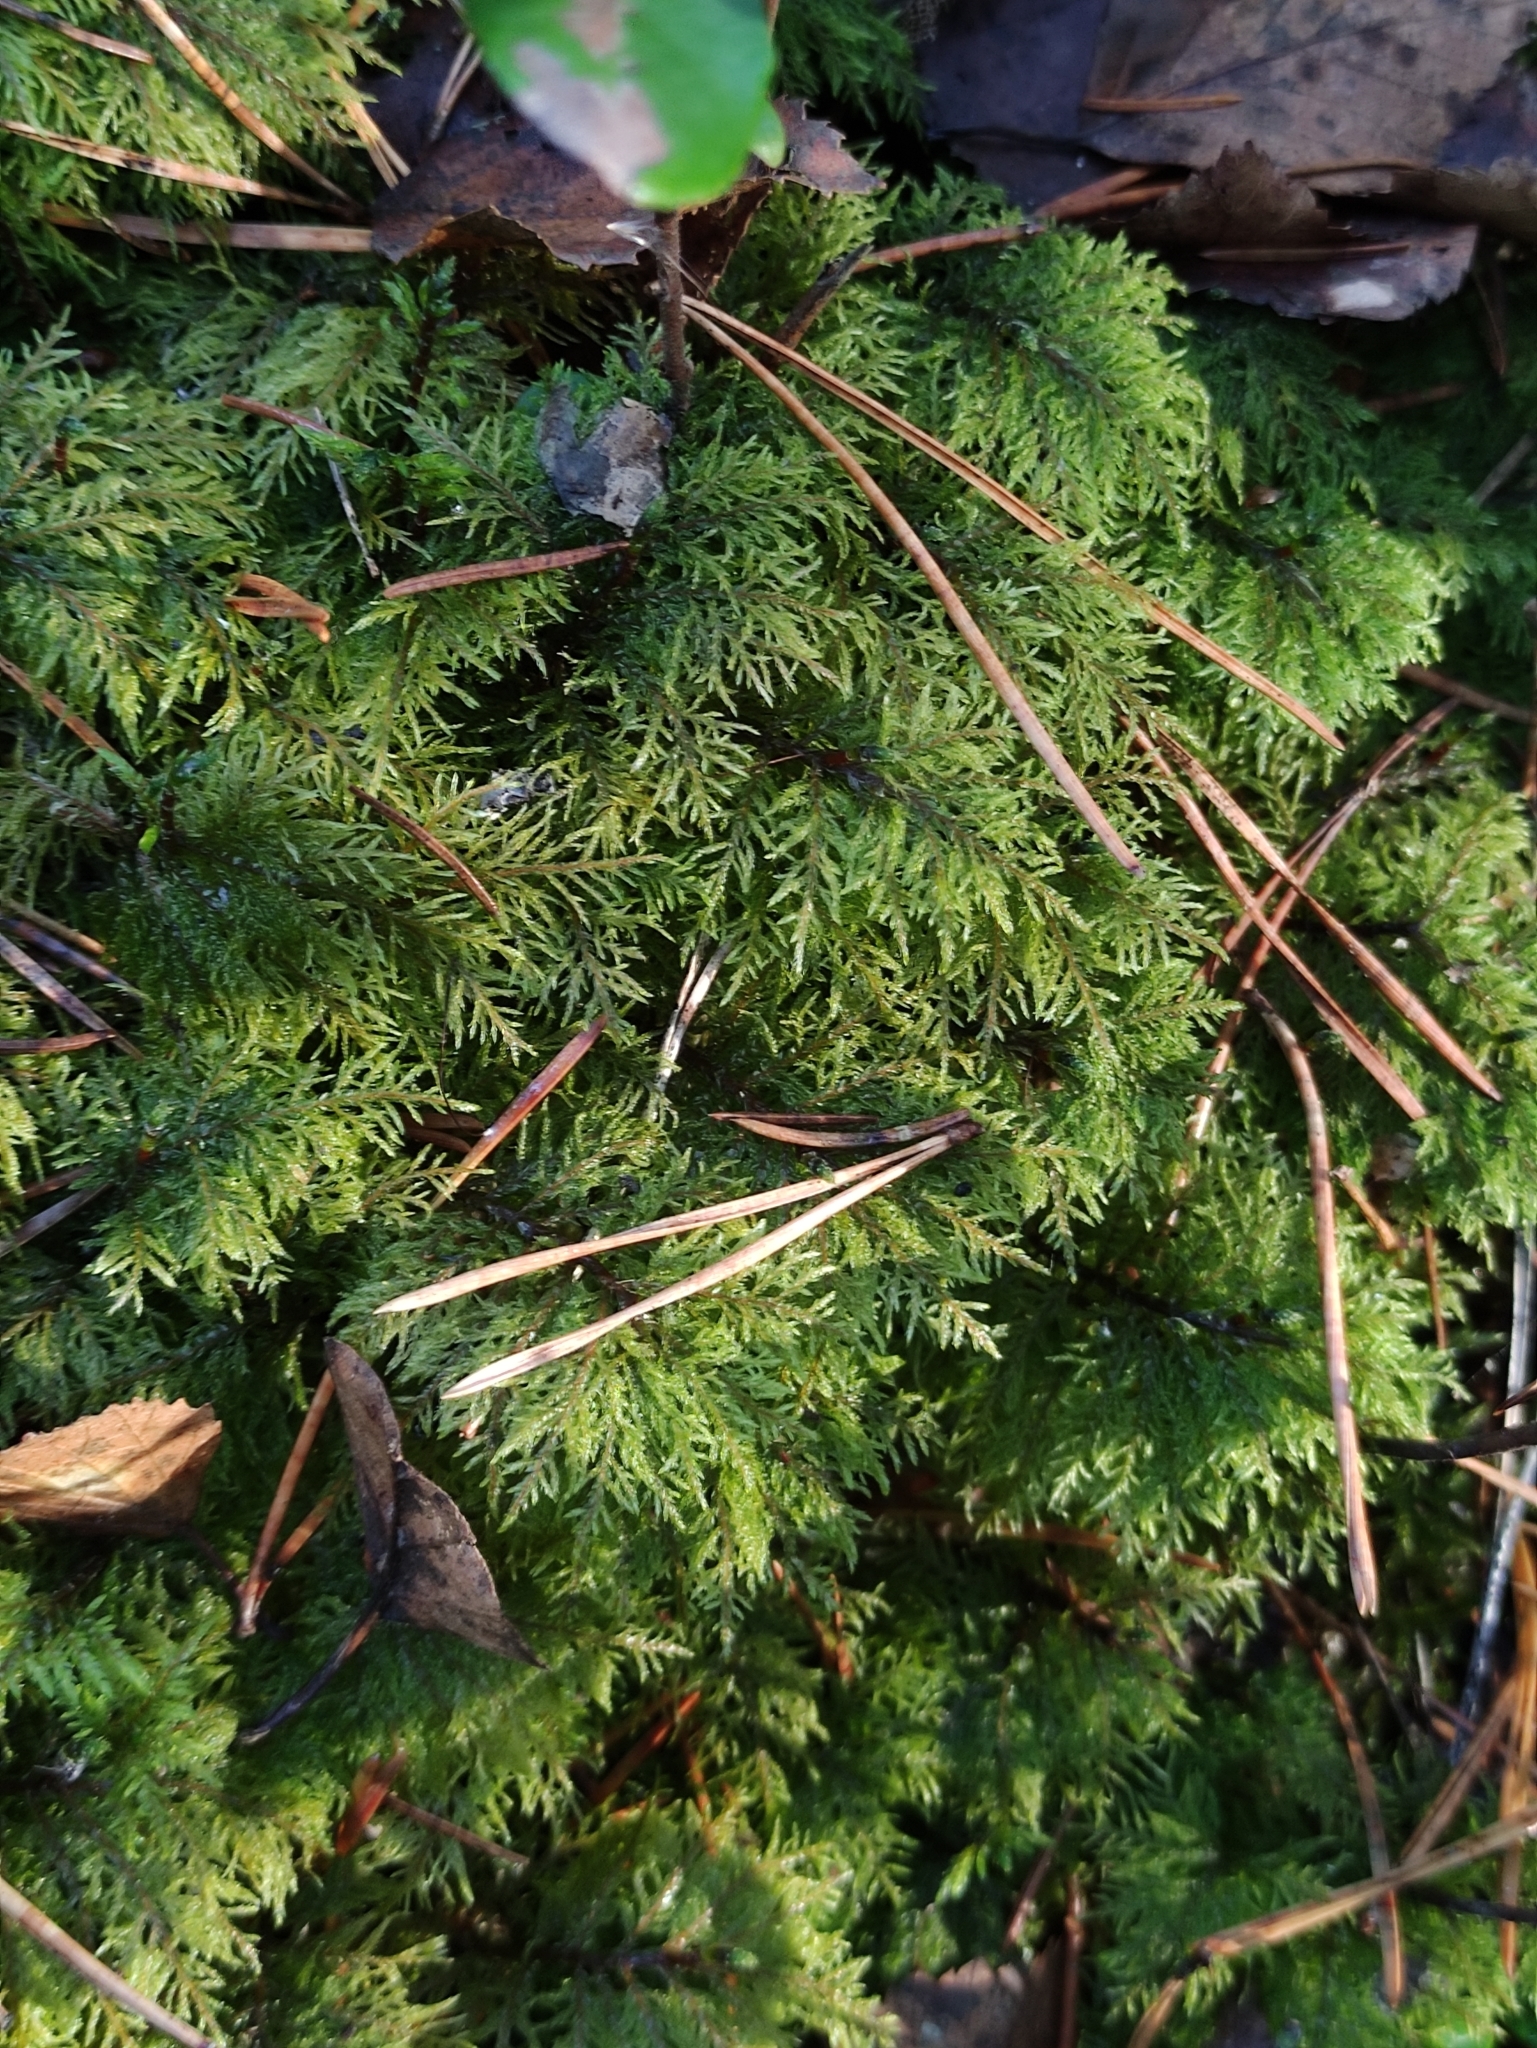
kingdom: Plantae
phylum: Bryophyta
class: Bryopsida
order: Hypnales
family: Hylocomiaceae
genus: Hylocomium
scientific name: Hylocomium splendens
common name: Stairstep moss
